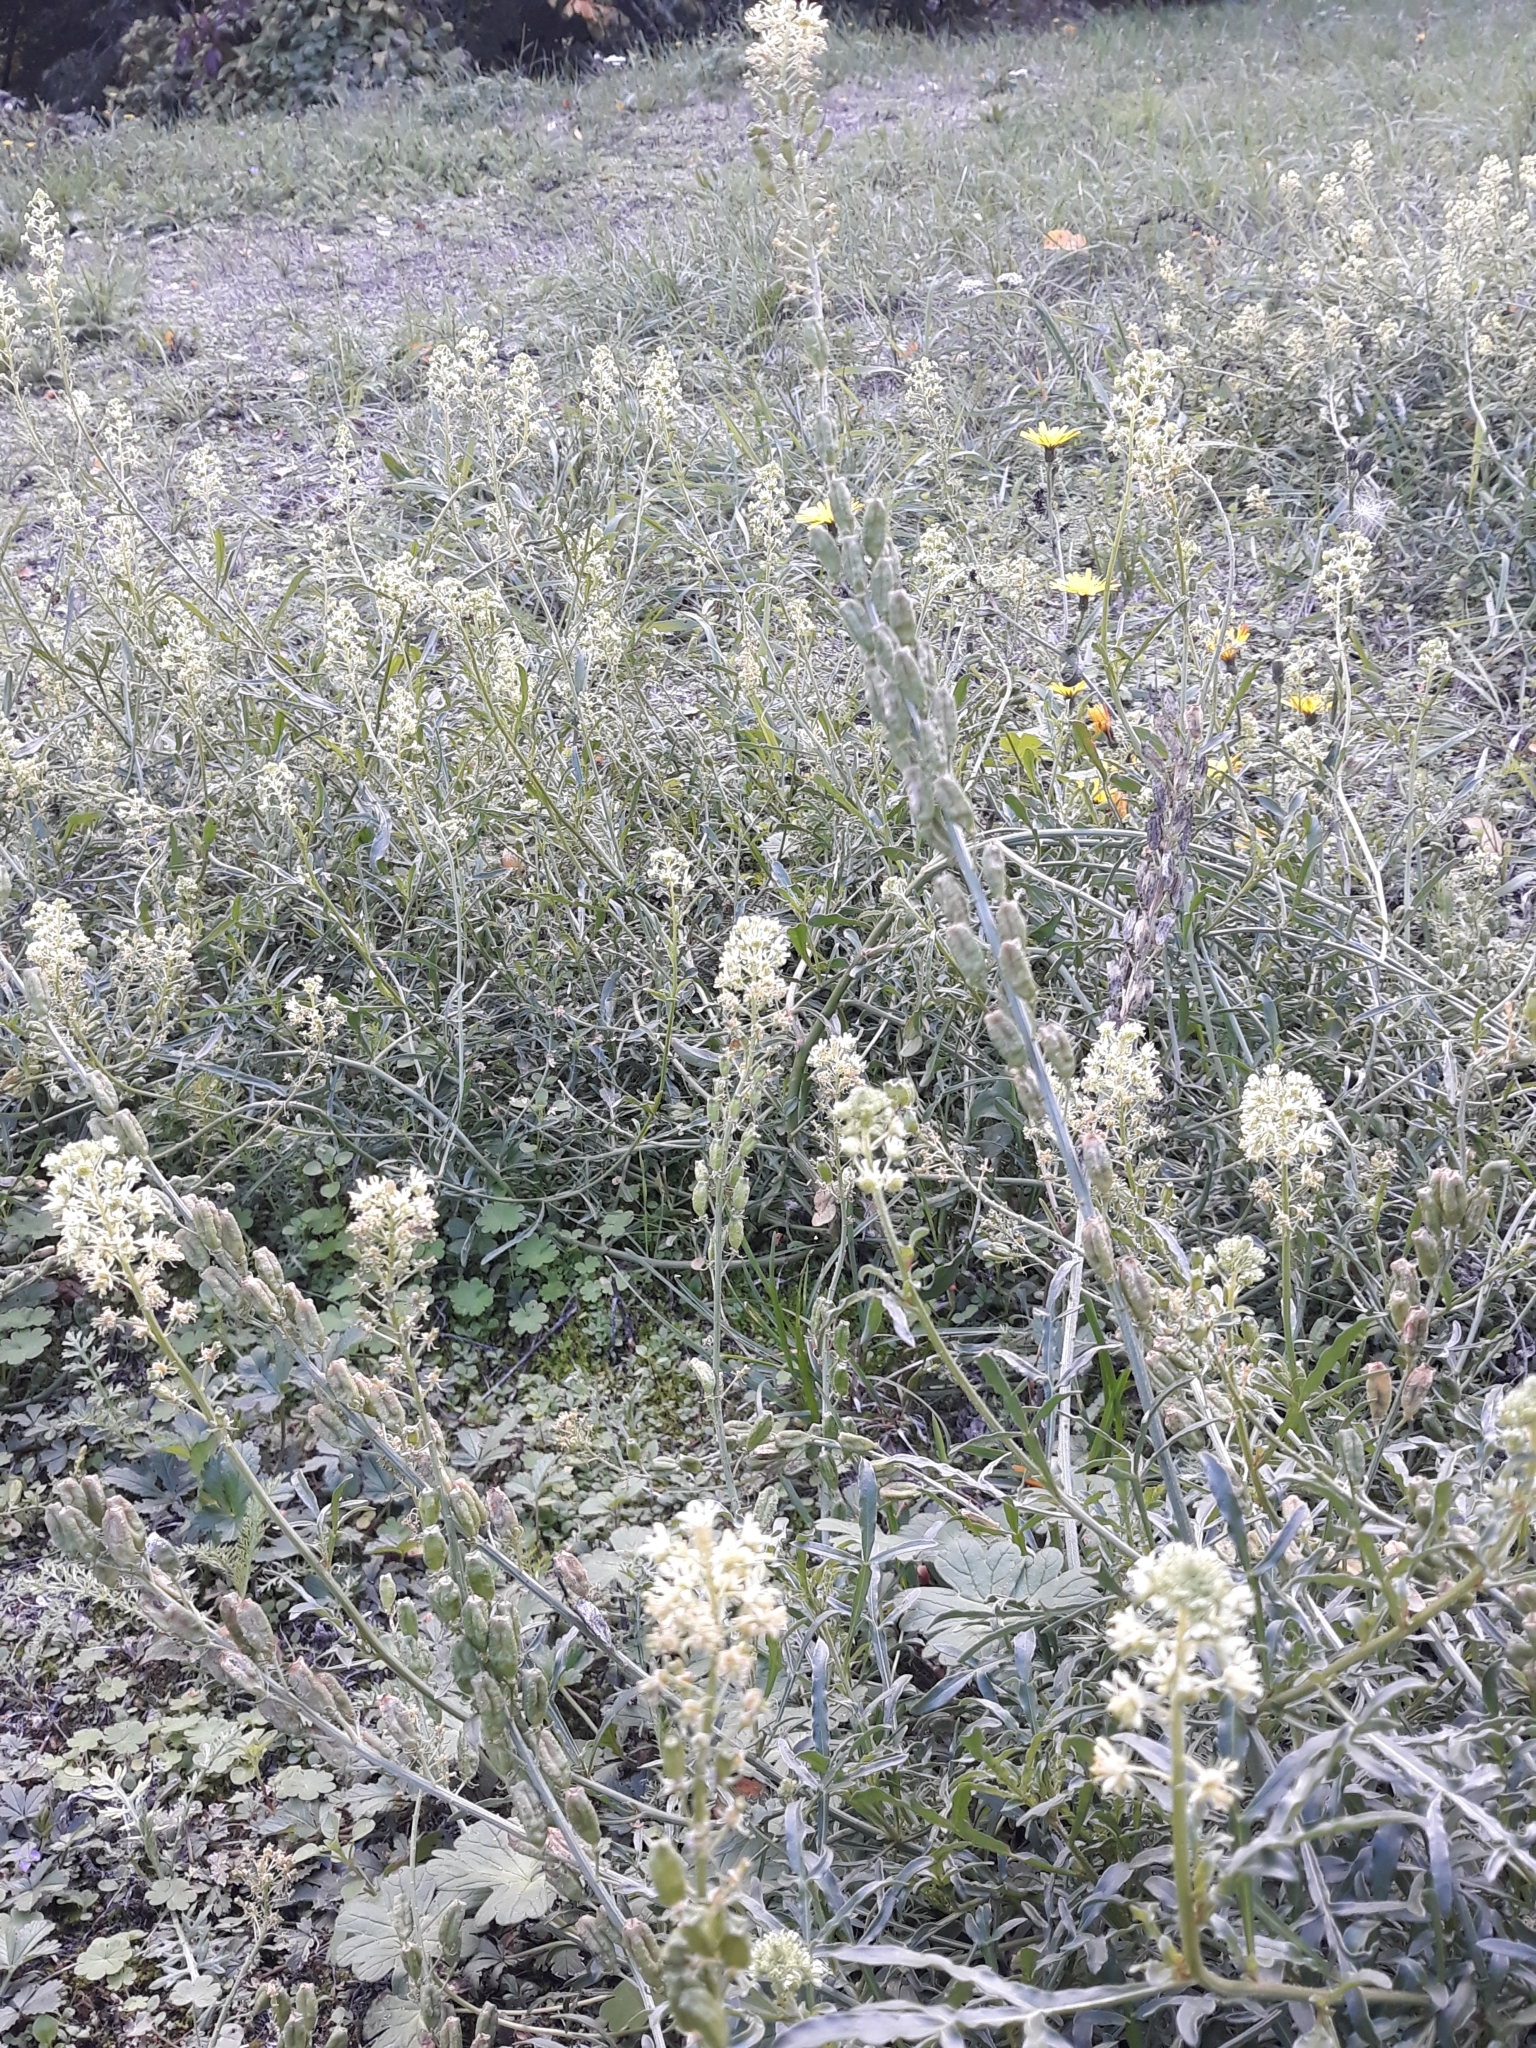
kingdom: Plantae
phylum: Tracheophyta
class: Magnoliopsida
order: Brassicales
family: Resedaceae
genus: Reseda
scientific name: Reseda lutea
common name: Wild mignonette
